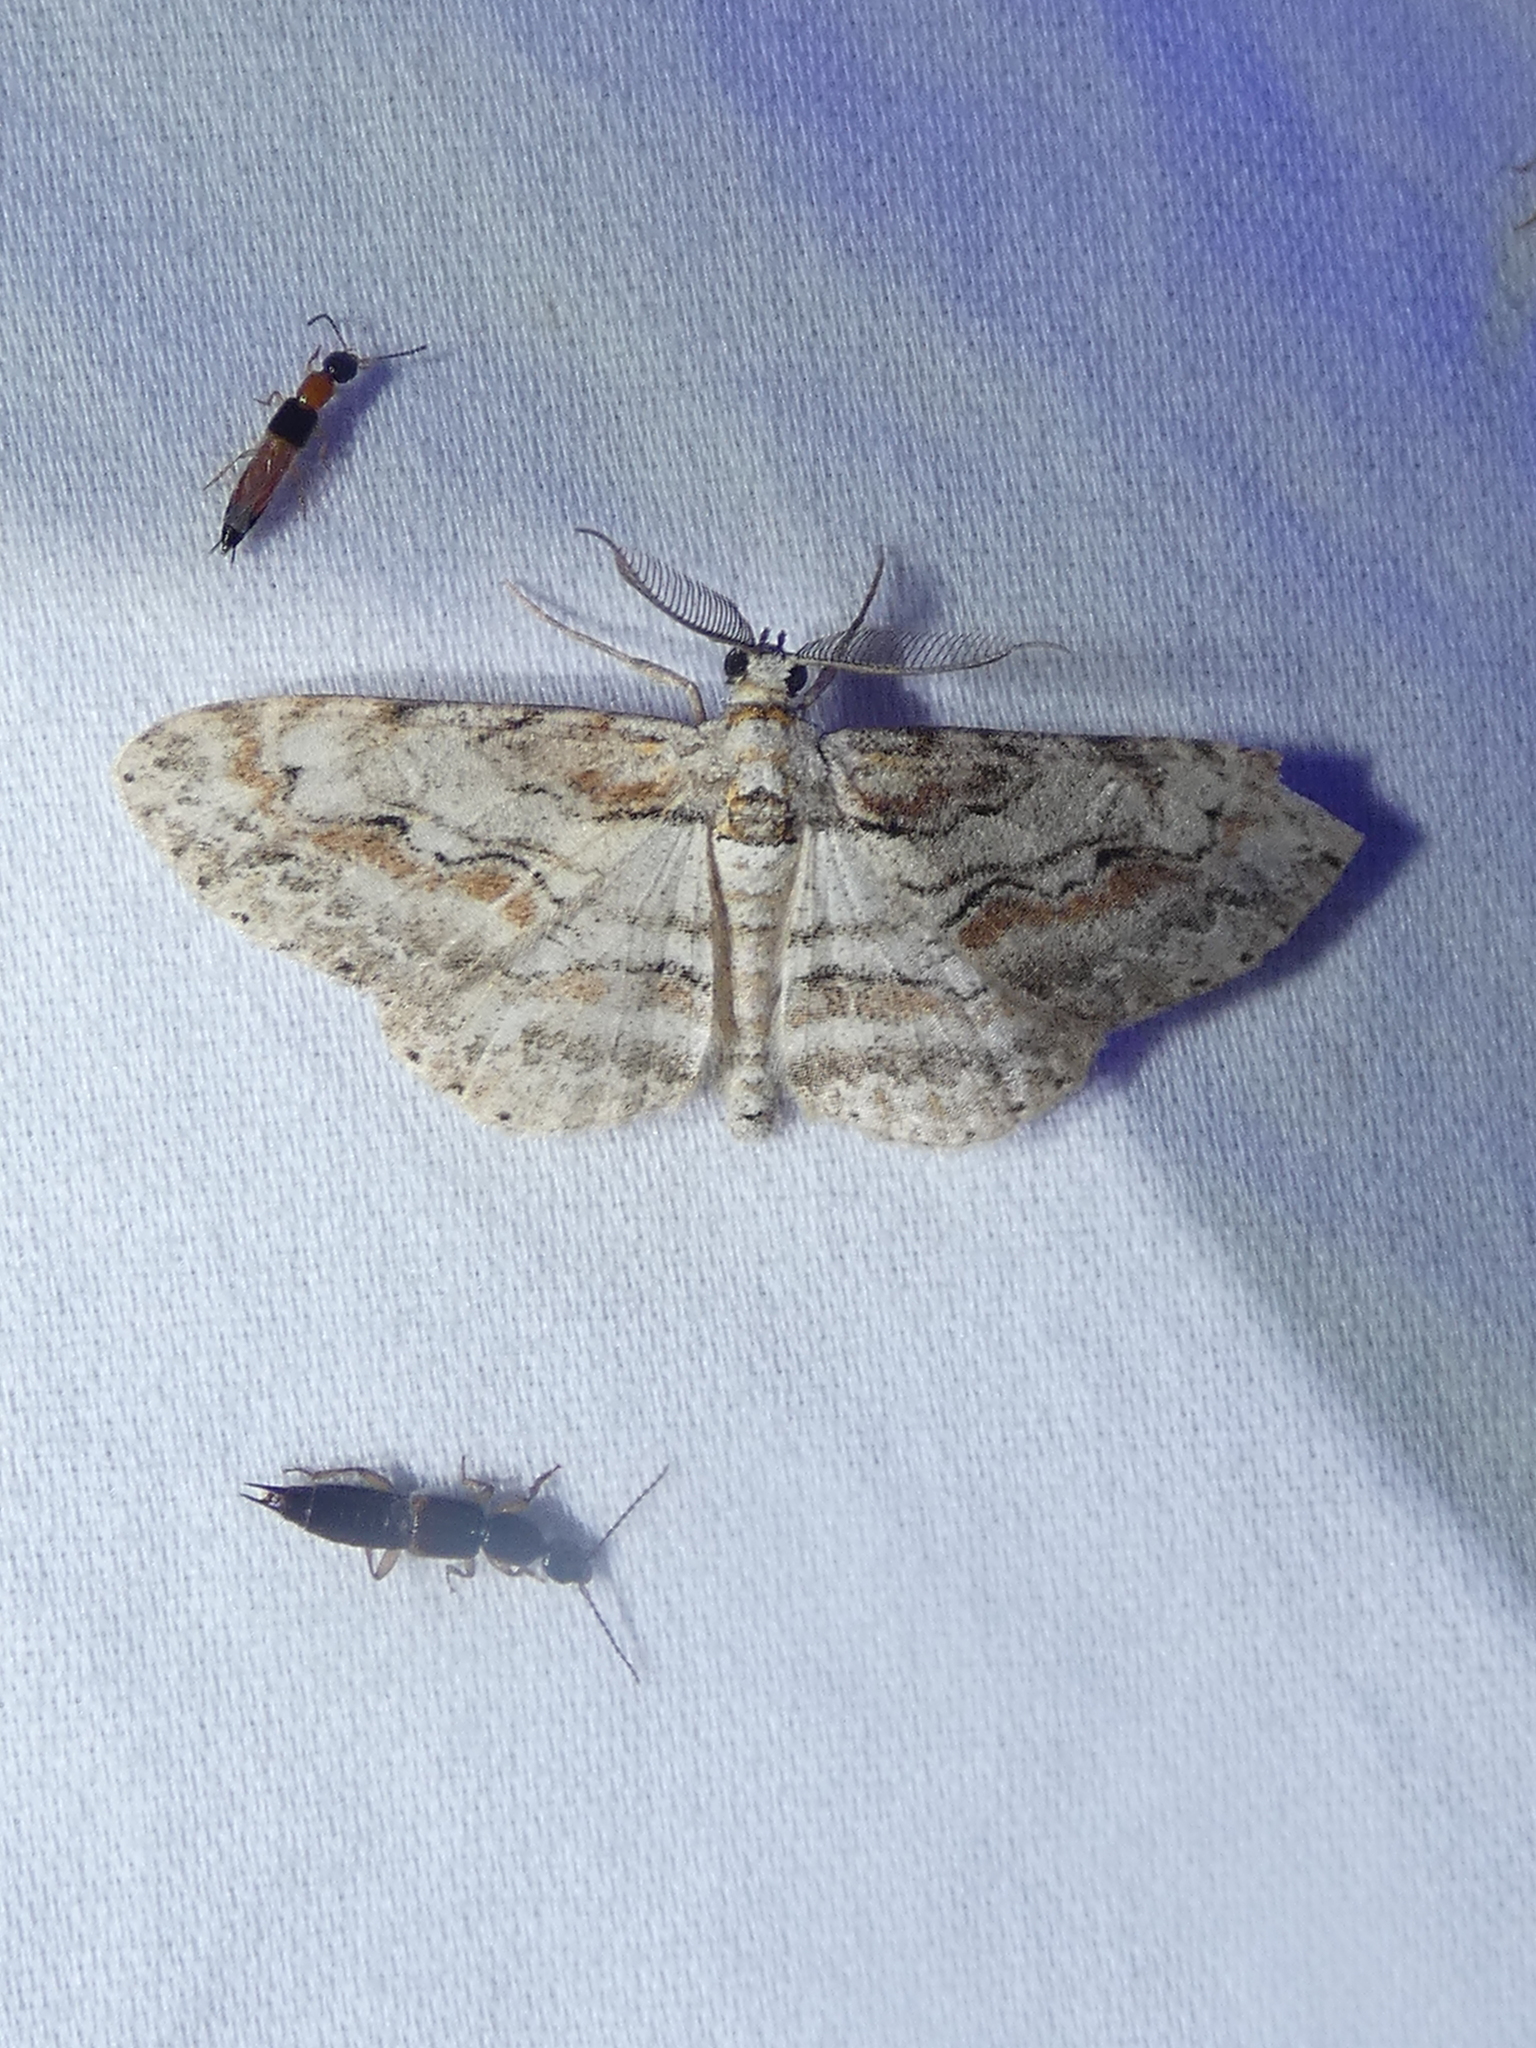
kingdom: Animalia
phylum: Arthropoda
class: Insecta
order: Lepidoptera
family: Geometridae
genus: Iridopsis
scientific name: Iridopsis defectaria
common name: Brown-shaded gray
